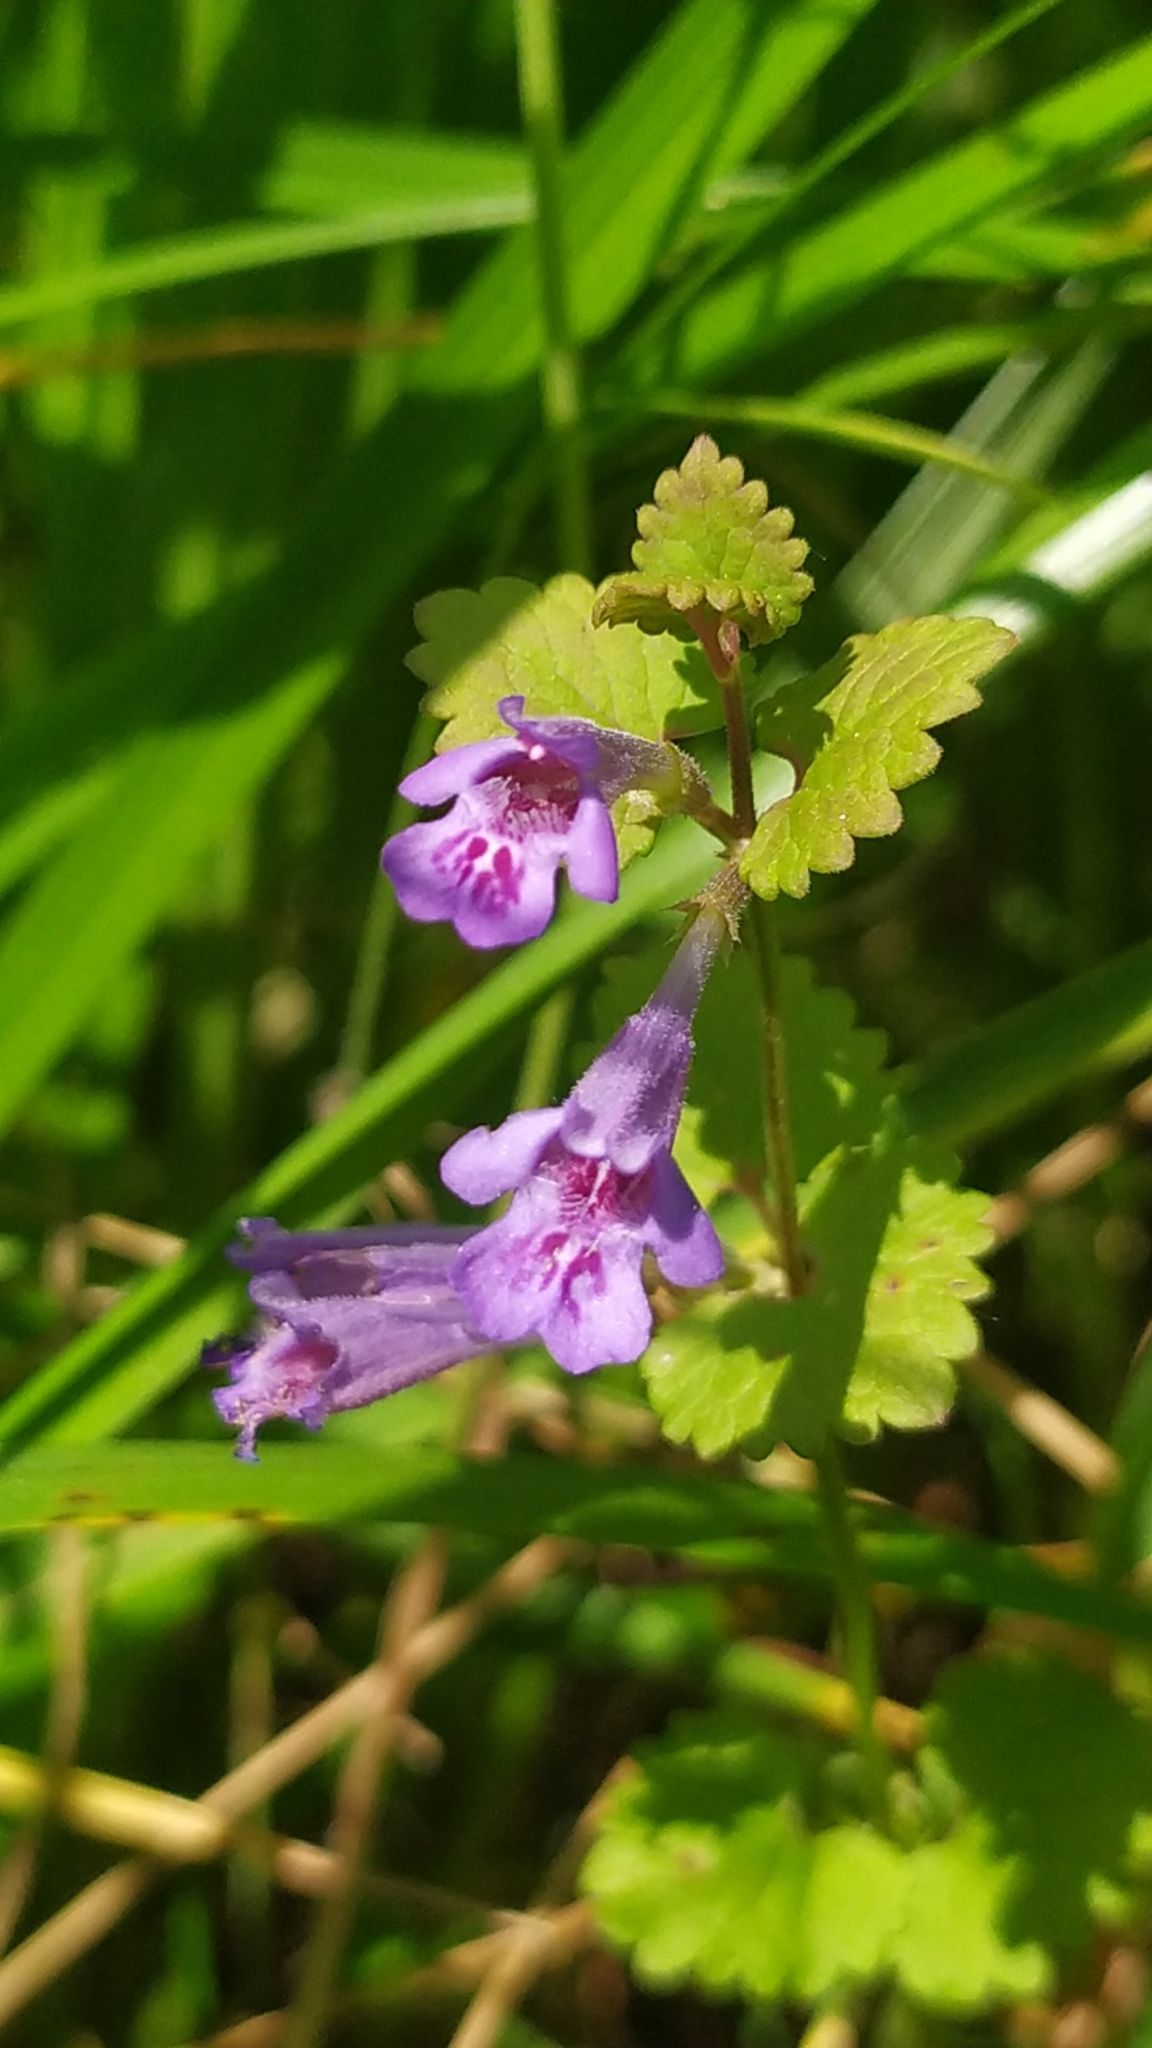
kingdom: Plantae
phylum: Tracheophyta
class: Magnoliopsida
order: Lamiales
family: Lamiaceae
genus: Glechoma
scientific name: Glechoma hederacea
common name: Ground ivy
